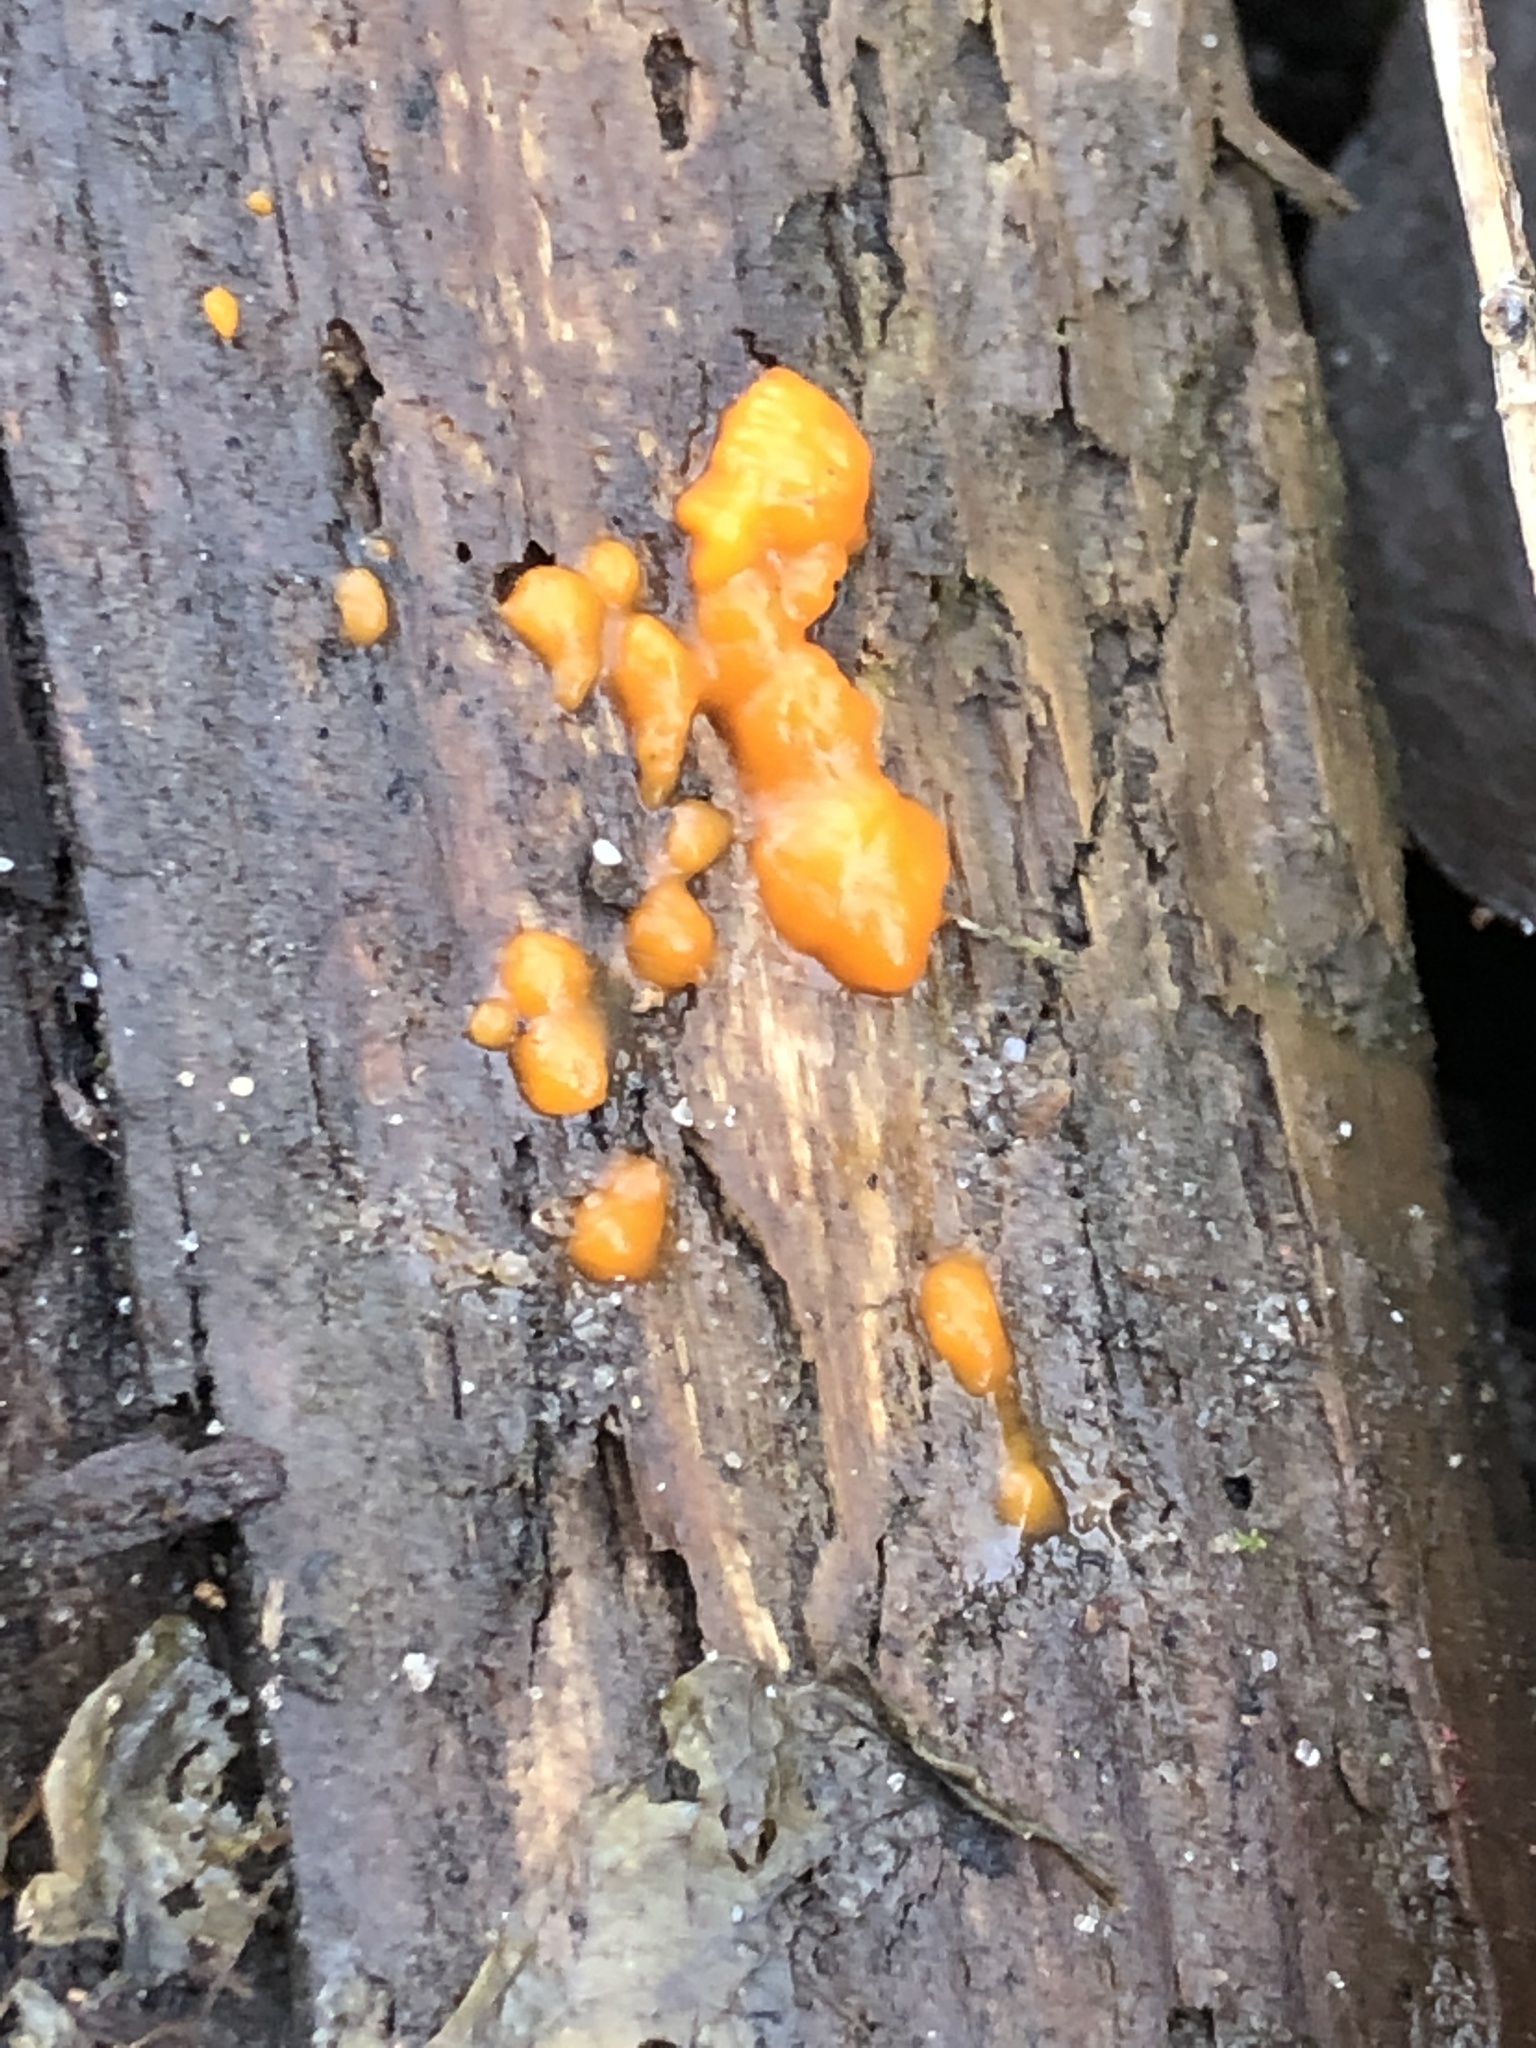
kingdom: Fungi
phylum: Basidiomycota
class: Dacrymycetes
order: Dacrymycetales
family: Dacrymycetaceae
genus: Dacrymyces
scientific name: Dacrymyces stillatus
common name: Common jelly spot
